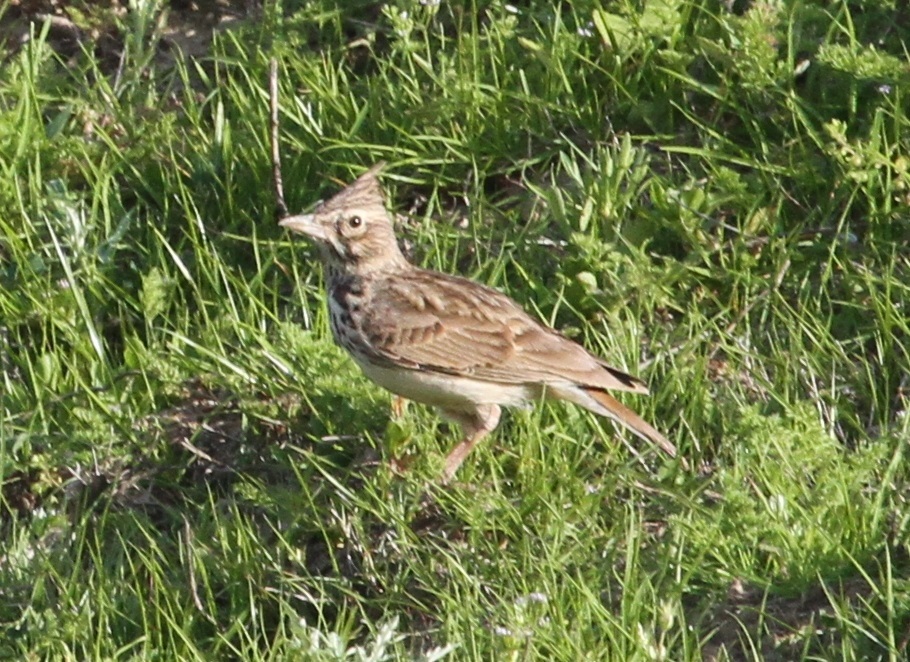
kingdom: Animalia
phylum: Chordata
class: Aves
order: Passeriformes
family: Alaudidae
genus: Galerida
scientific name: Galerida cristata
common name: Crested lark
